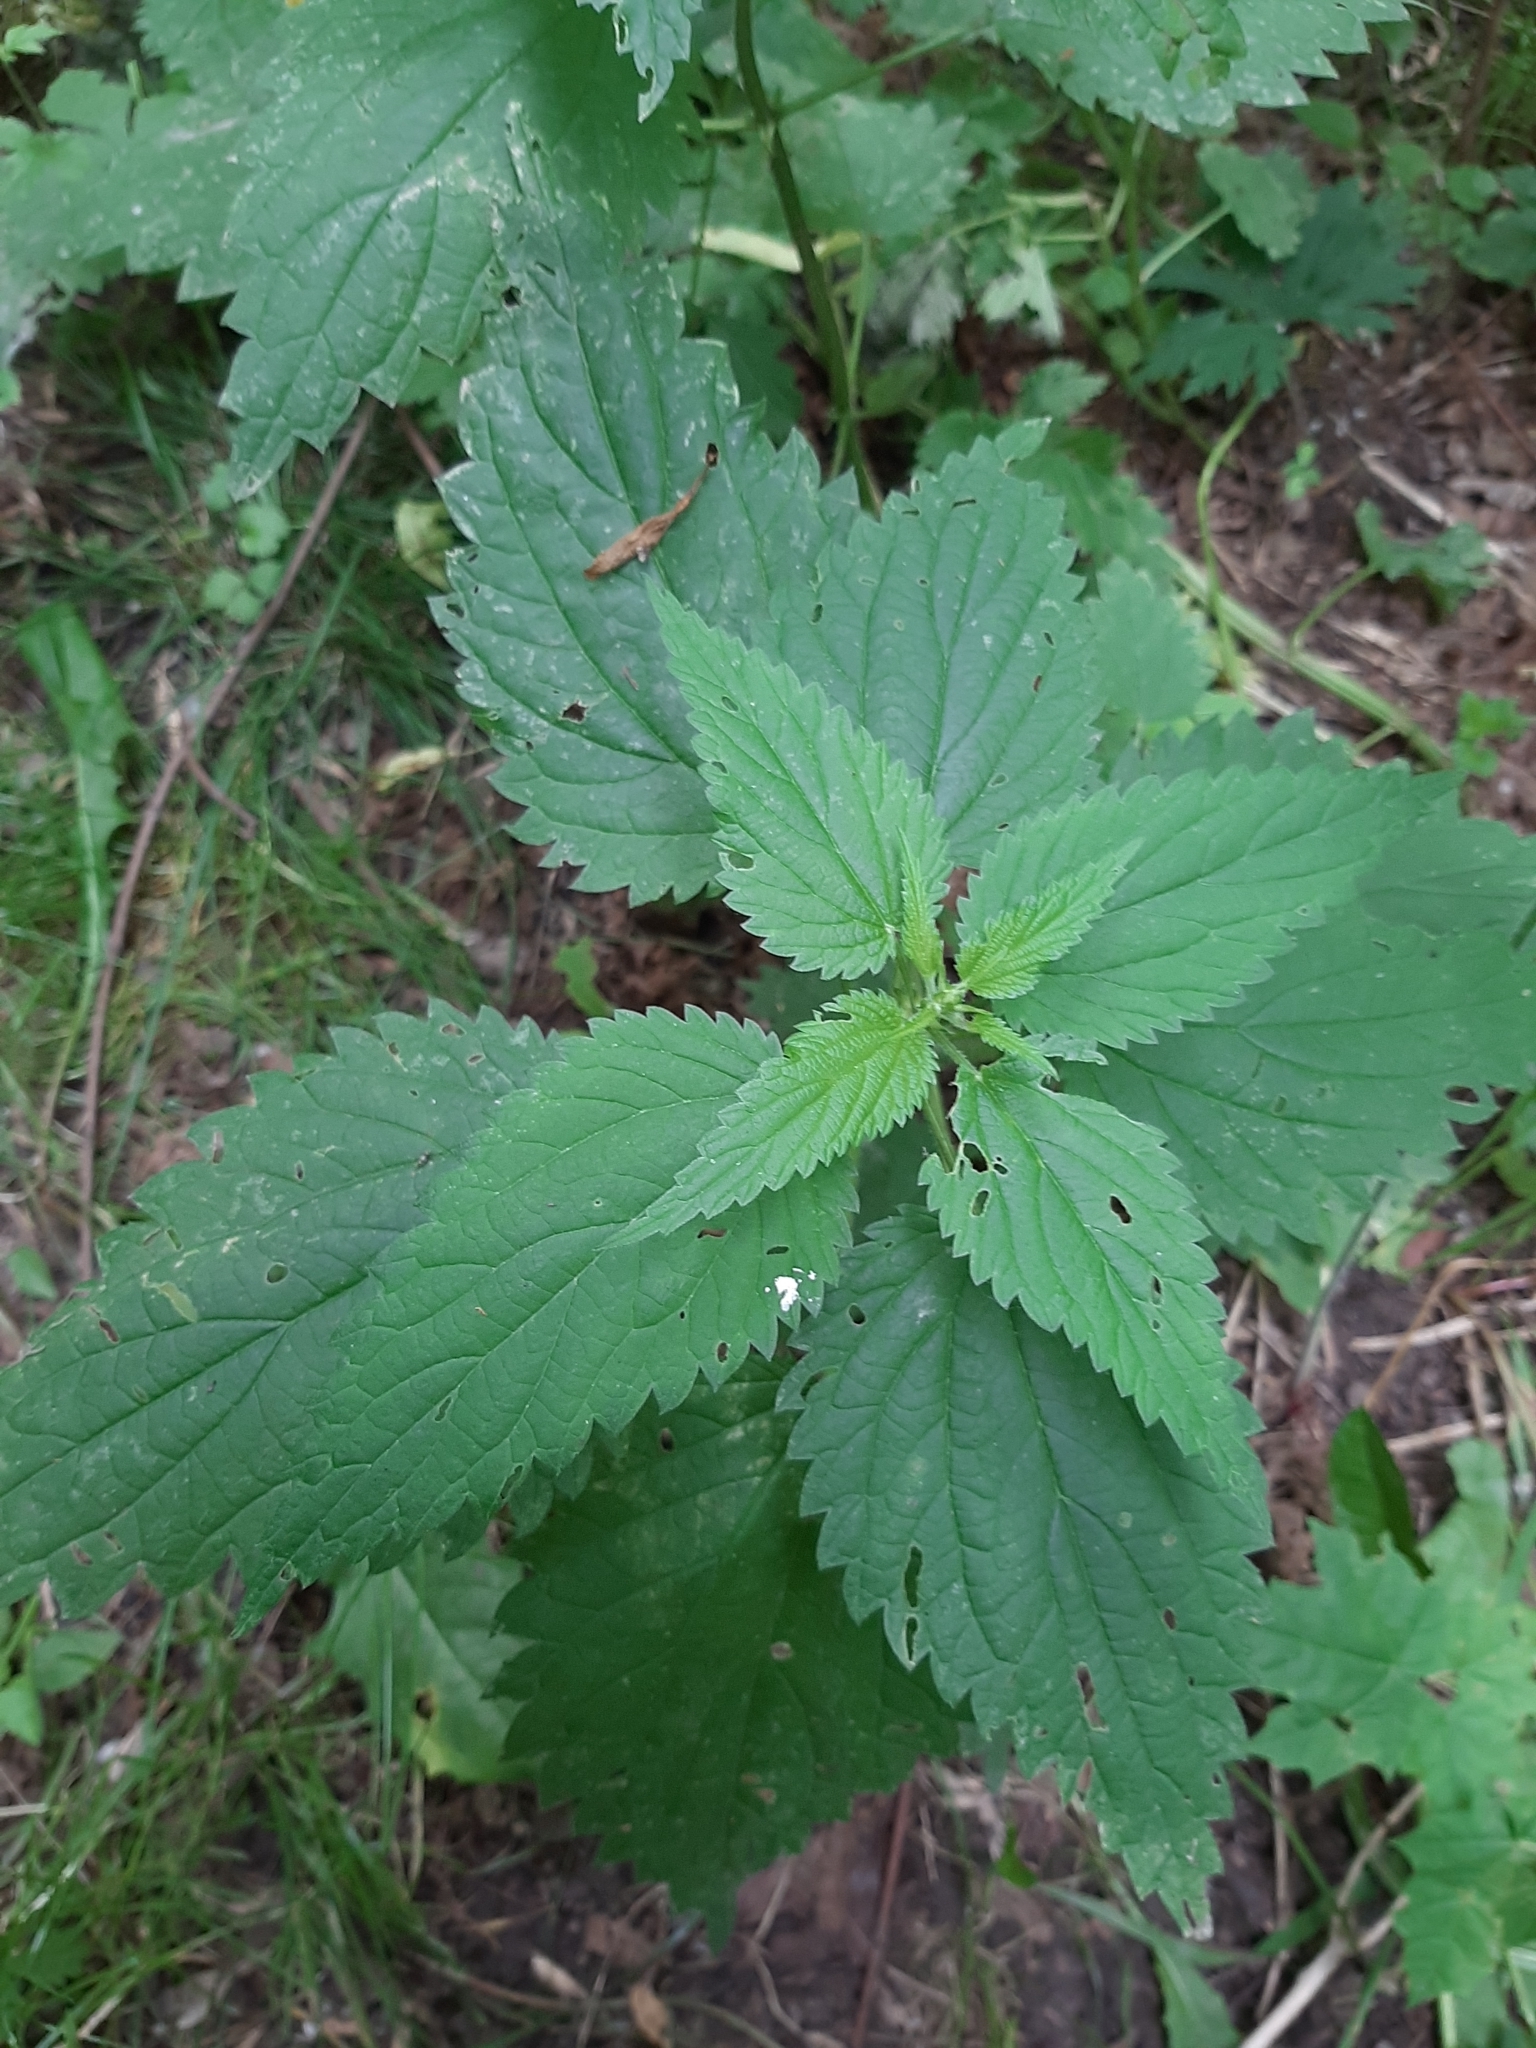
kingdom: Plantae
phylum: Tracheophyta
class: Magnoliopsida
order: Rosales
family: Urticaceae
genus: Urtica
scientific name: Urtica dioica
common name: Common nettle
